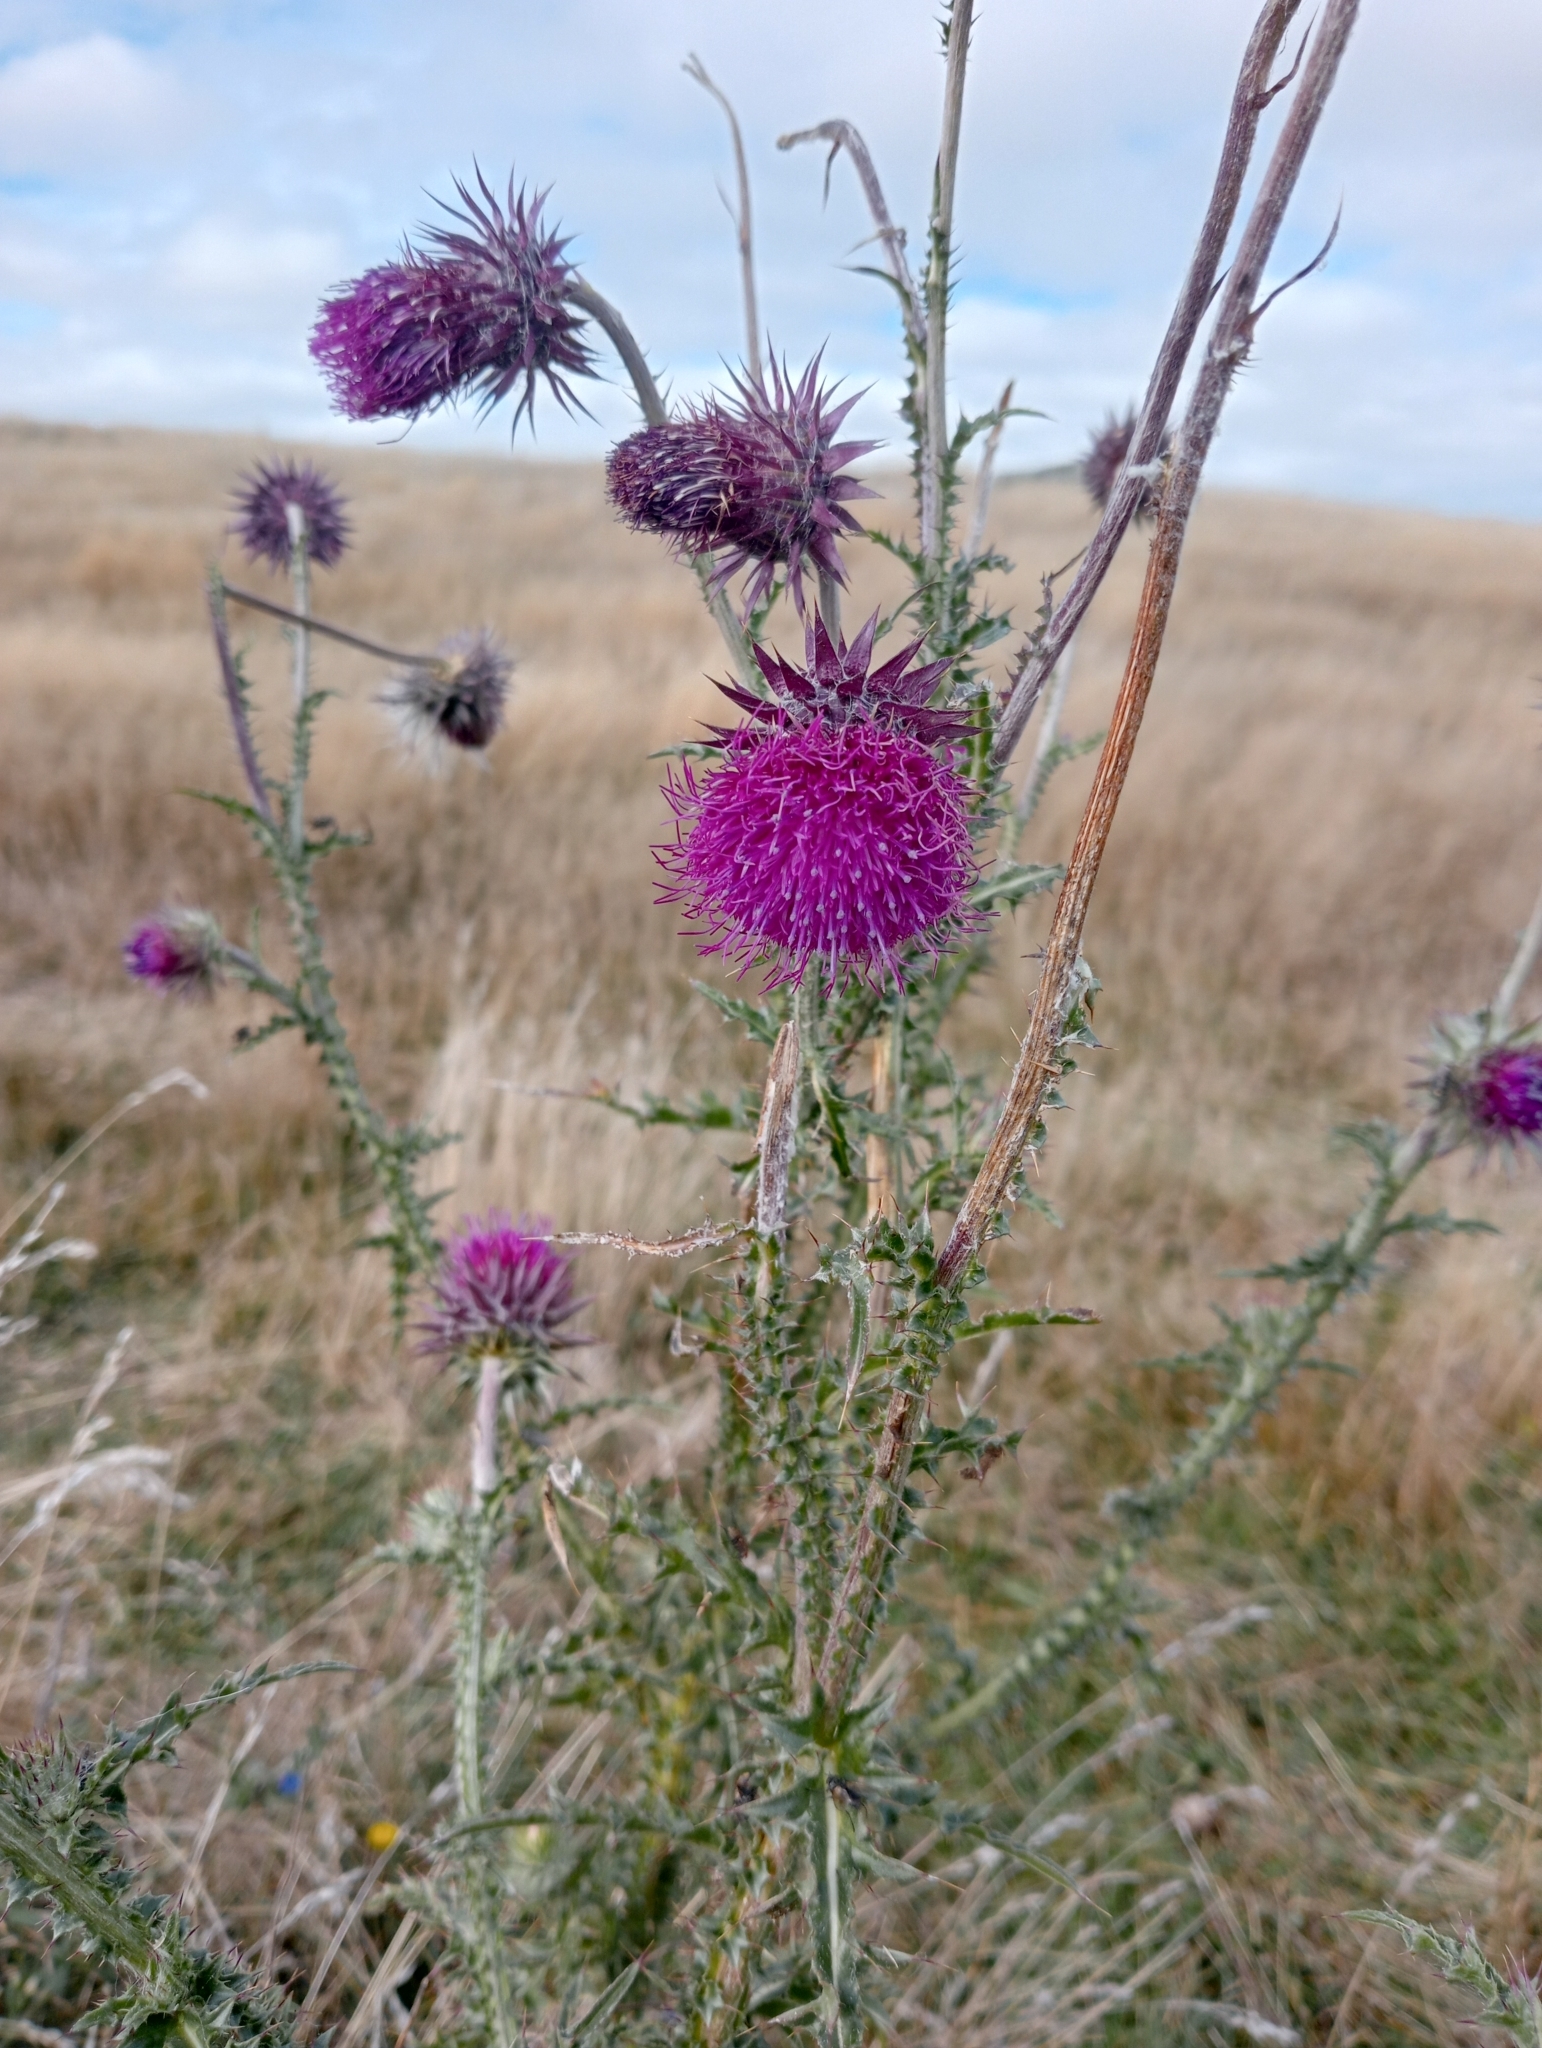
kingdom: Plantae
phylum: Tracheophyta
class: Magnoliopsida
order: Asterales
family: Asteraceae
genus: Carduus
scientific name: Carduus nutans
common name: Musk thistle
